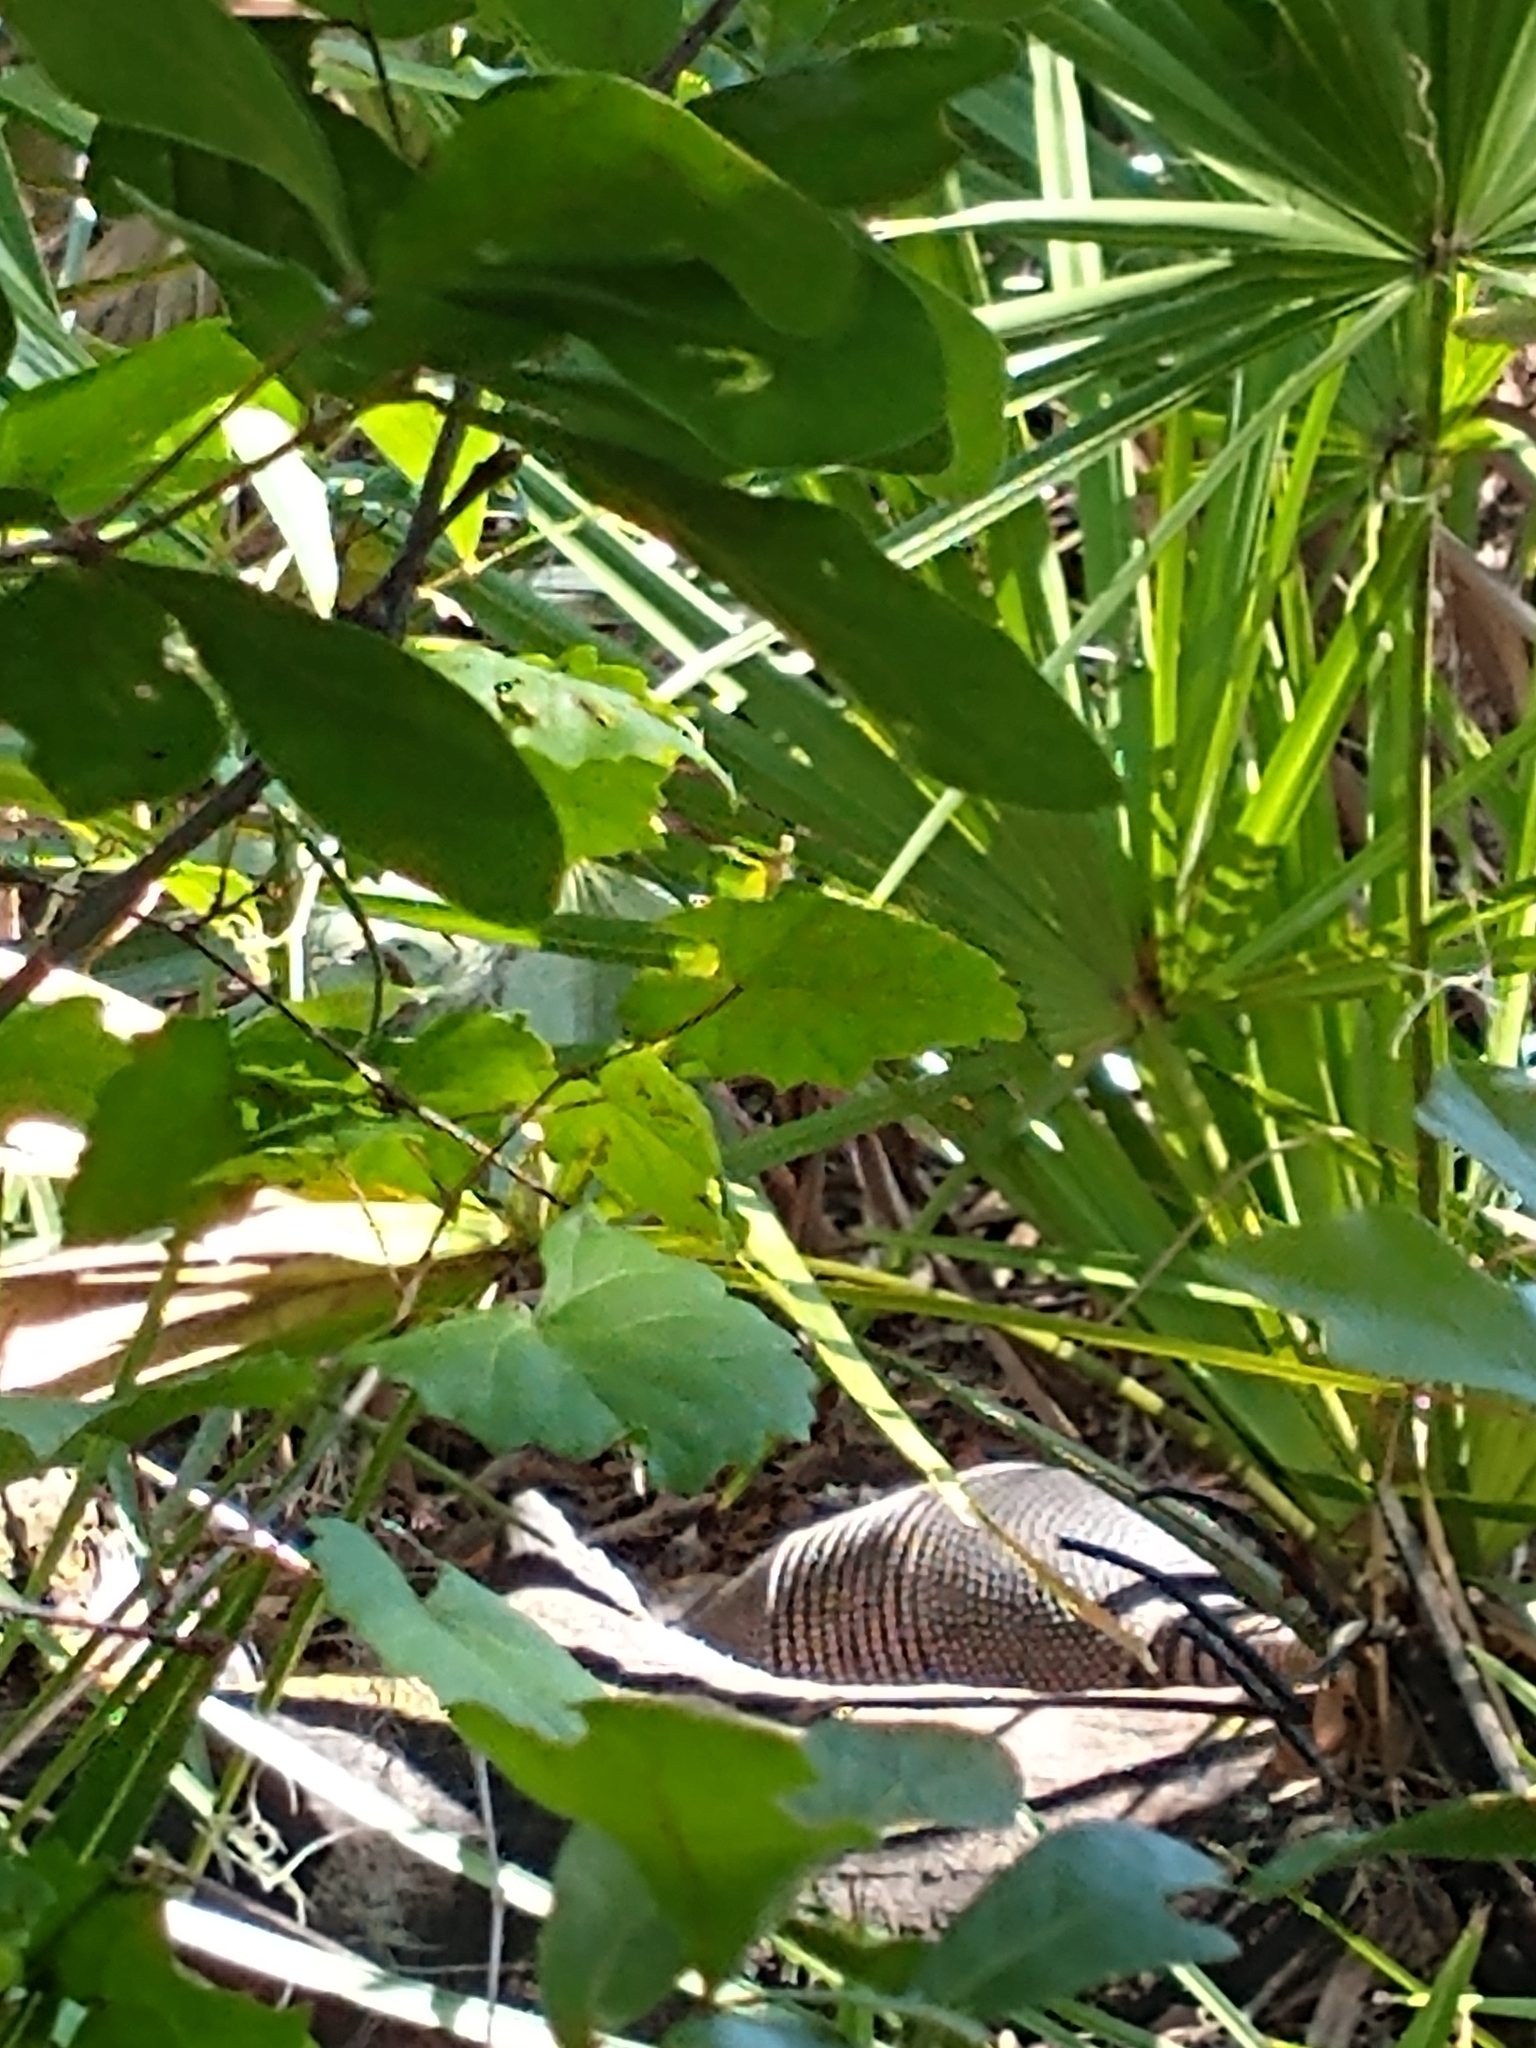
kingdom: Animalia
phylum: Chordata
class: Mammalia
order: Cingulata
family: Dasypodidae
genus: Dasypus
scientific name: Dasypus novemcinctus
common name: Nine-banded armadillo
